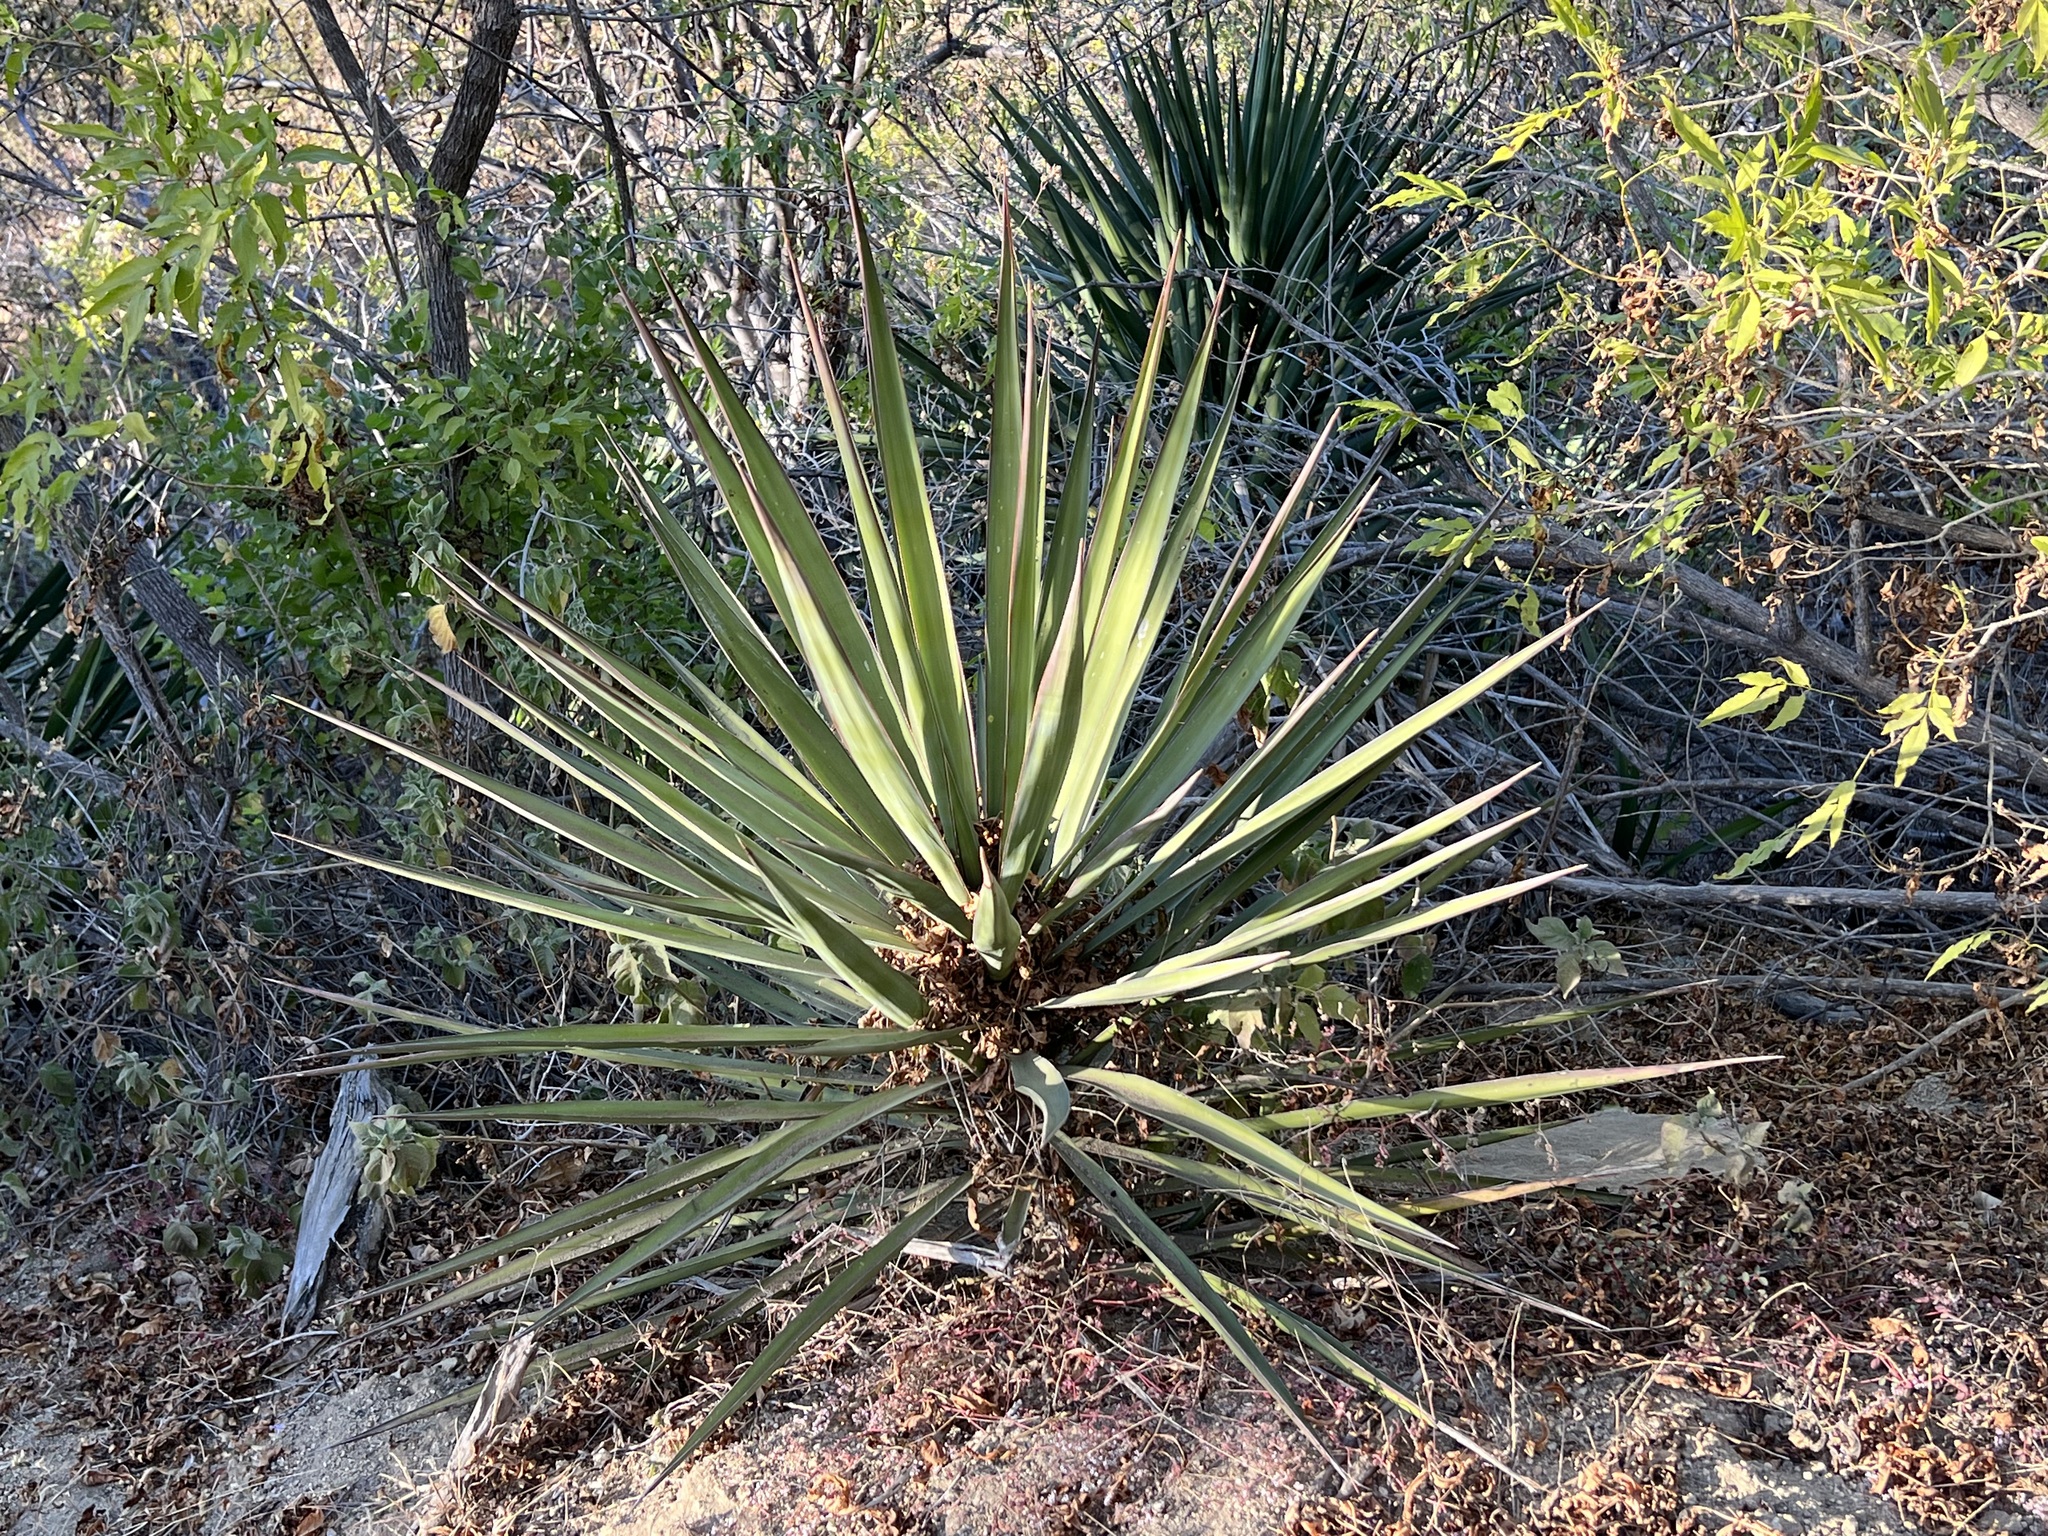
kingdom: Plantae
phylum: Tracheophyta
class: Liliopsida
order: Asparagales
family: Asparagaceae
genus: Yucca
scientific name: Yucca capensis
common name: Cape region yucca
